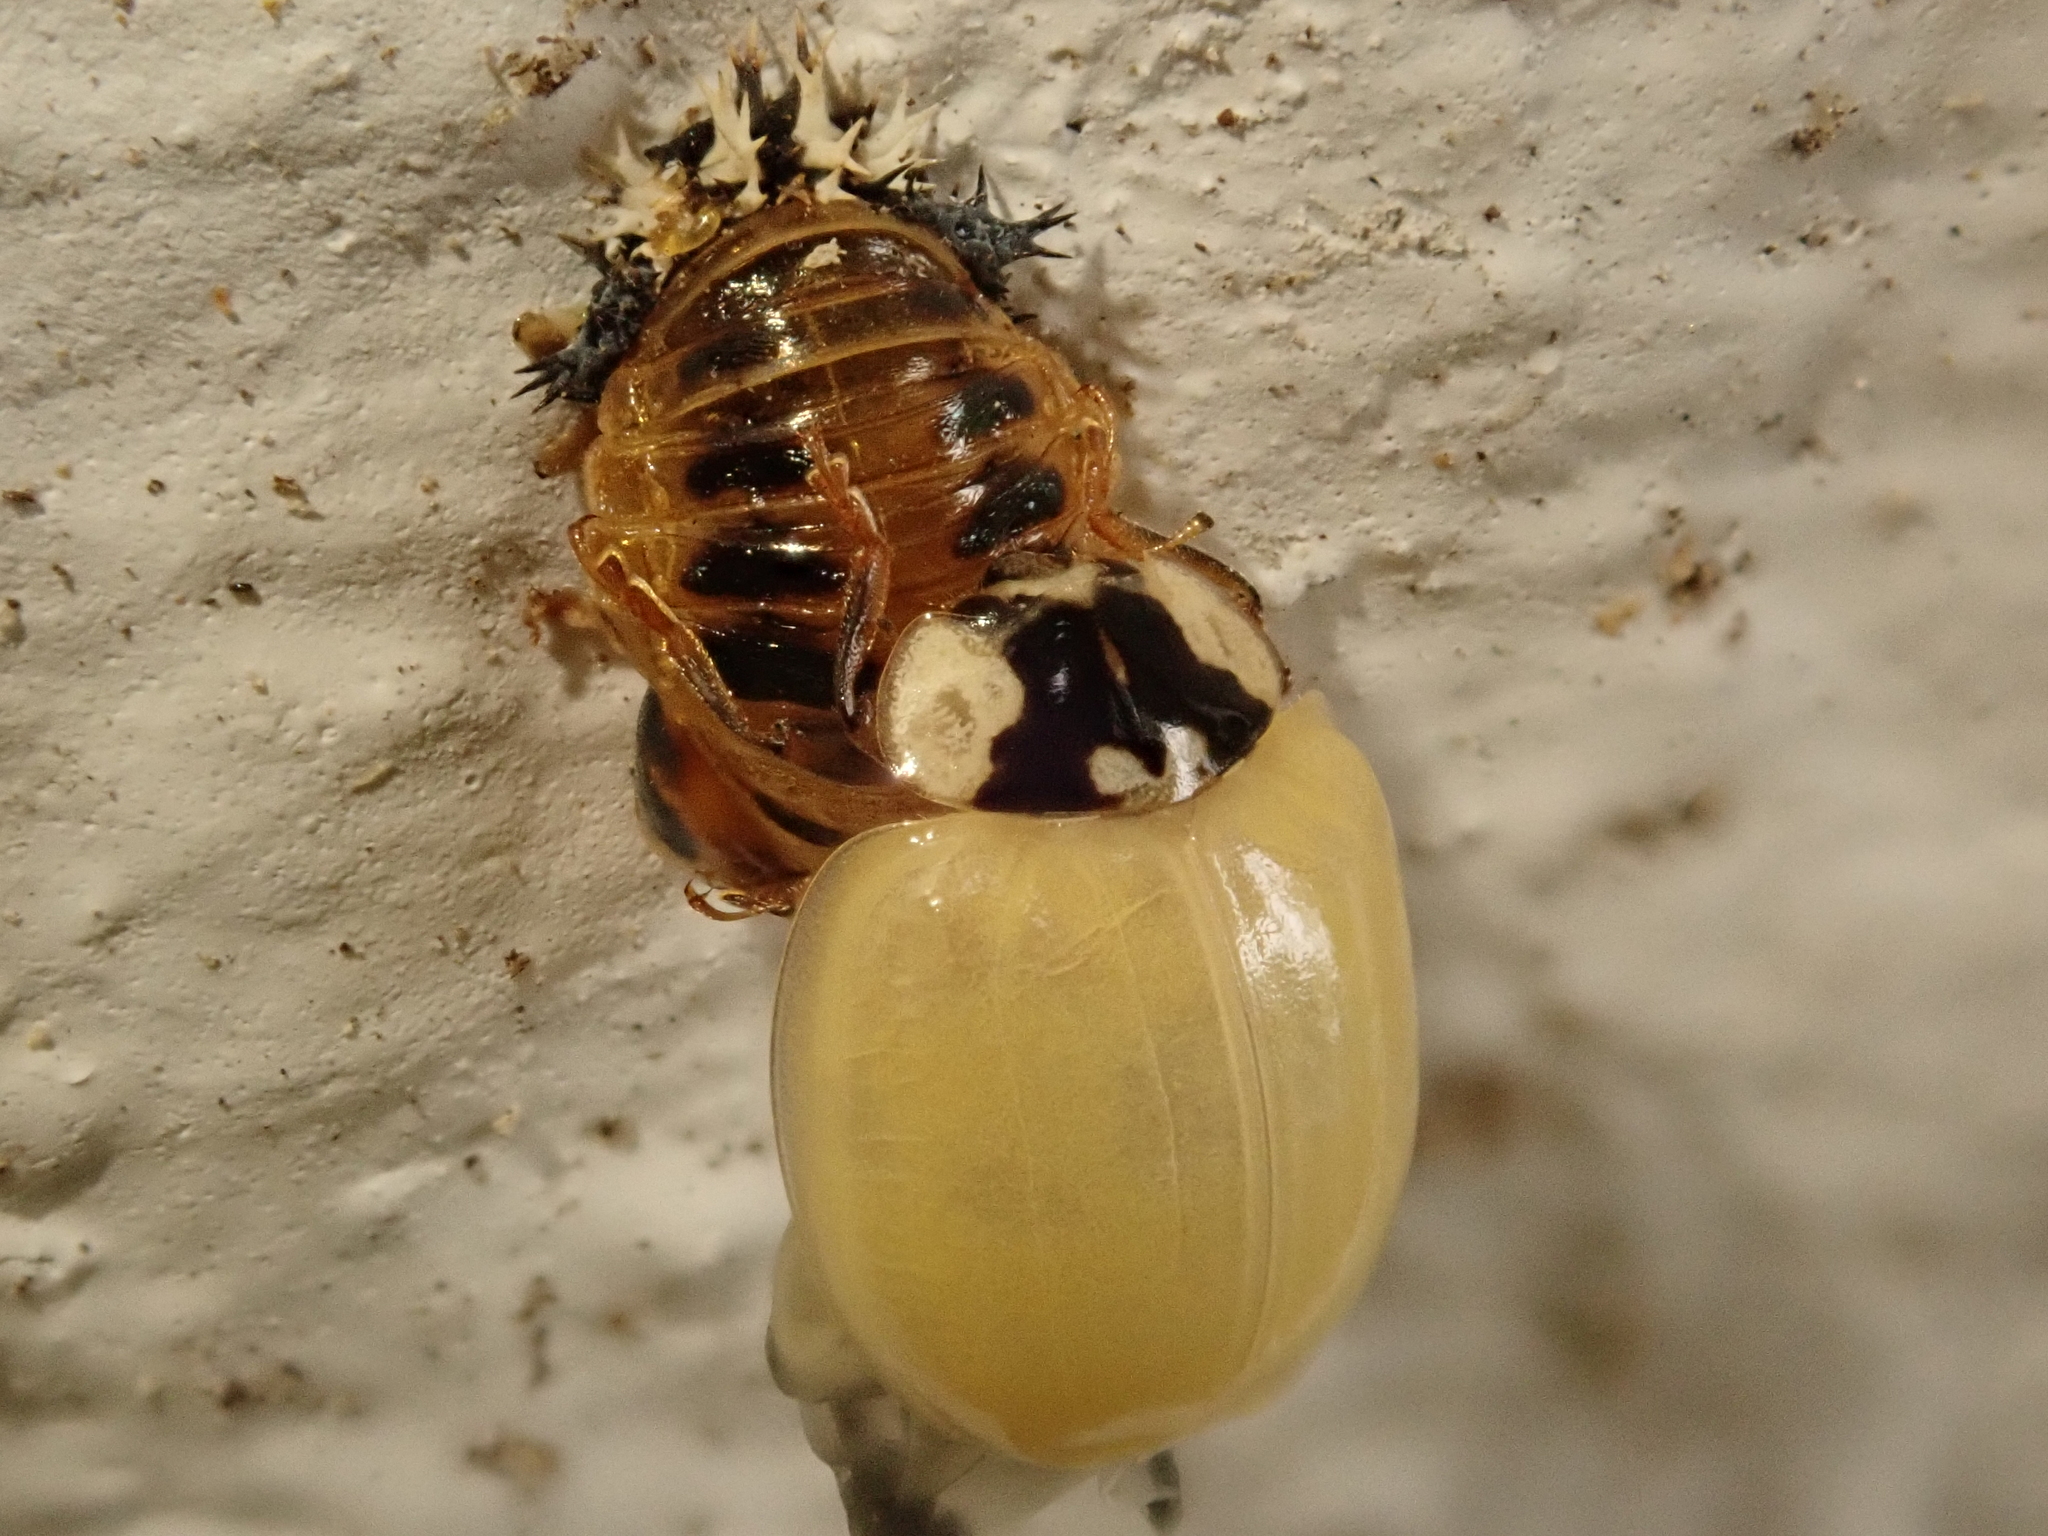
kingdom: Animalia
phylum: Arthropoda
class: Insecta
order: Coleoptera
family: Coccinellidae
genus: Harmonia
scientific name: Harmonia axyridis
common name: Harlequin ladybird
